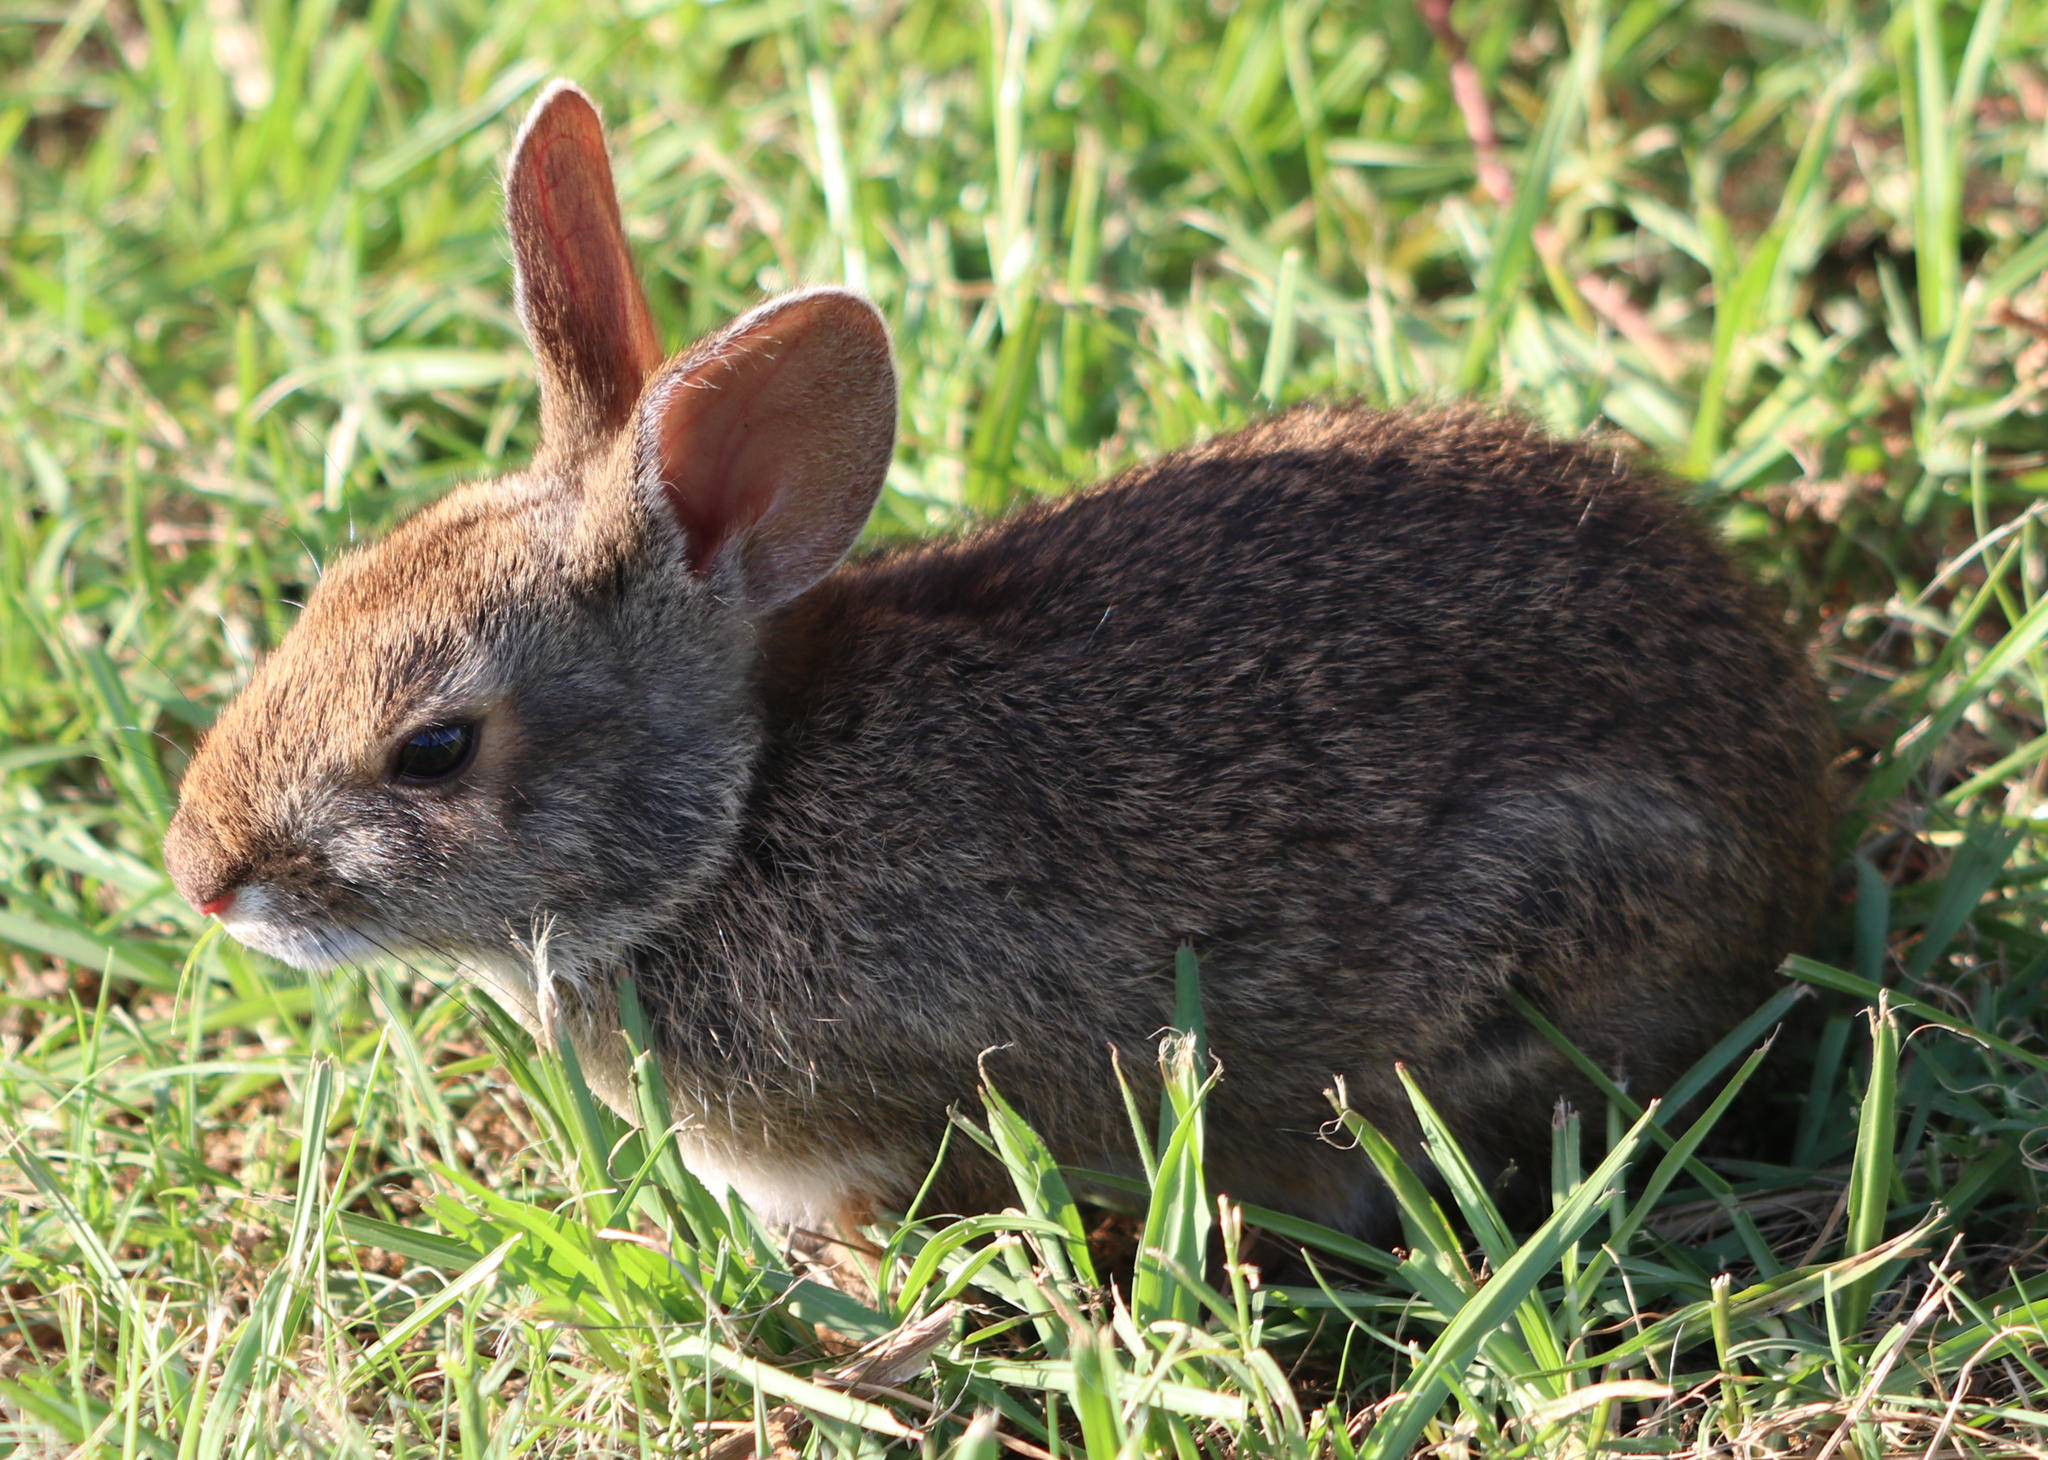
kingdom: Animalia
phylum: Chordata
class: Mammalia
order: Lagomorpha
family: Leporidae
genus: Sylvilagus
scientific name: Sylvilagus aquaticus
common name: Swamp rabbit
